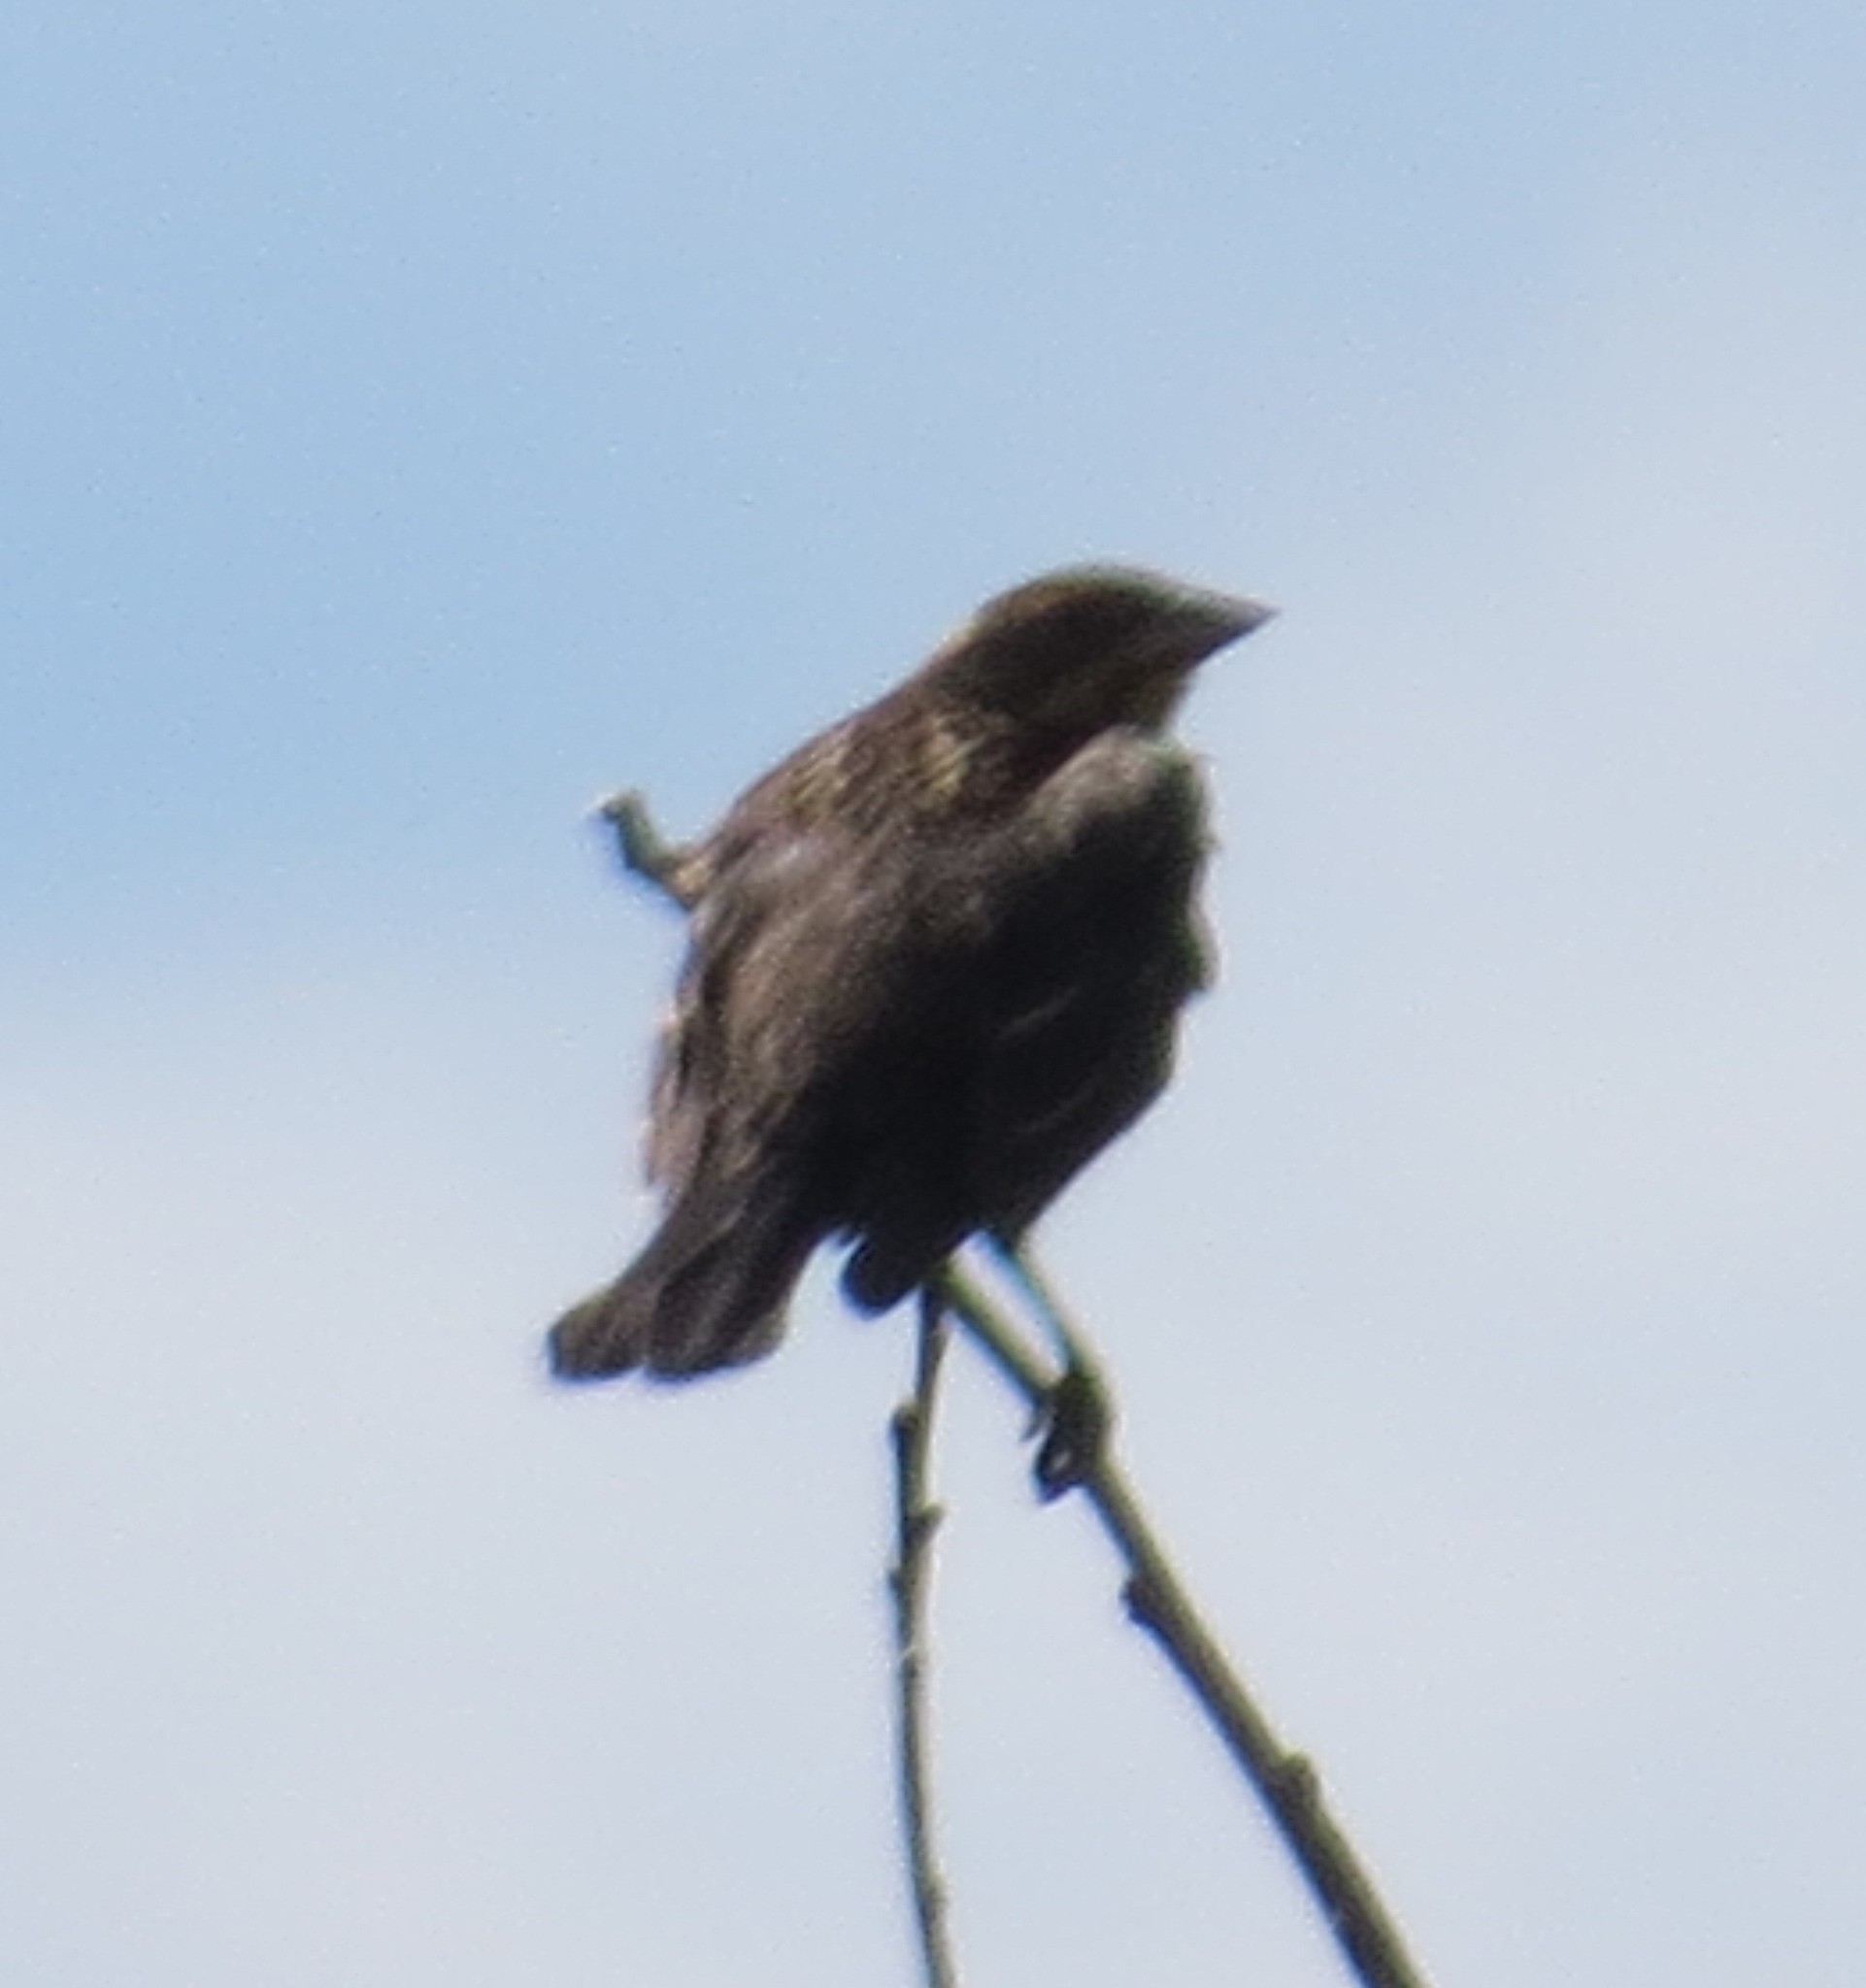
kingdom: Animalia
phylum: Chordata
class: Aves
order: Passeriformes
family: Icteridae
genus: Agelaius
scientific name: Agelaius phoeniceus
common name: Red-winged blackbird
